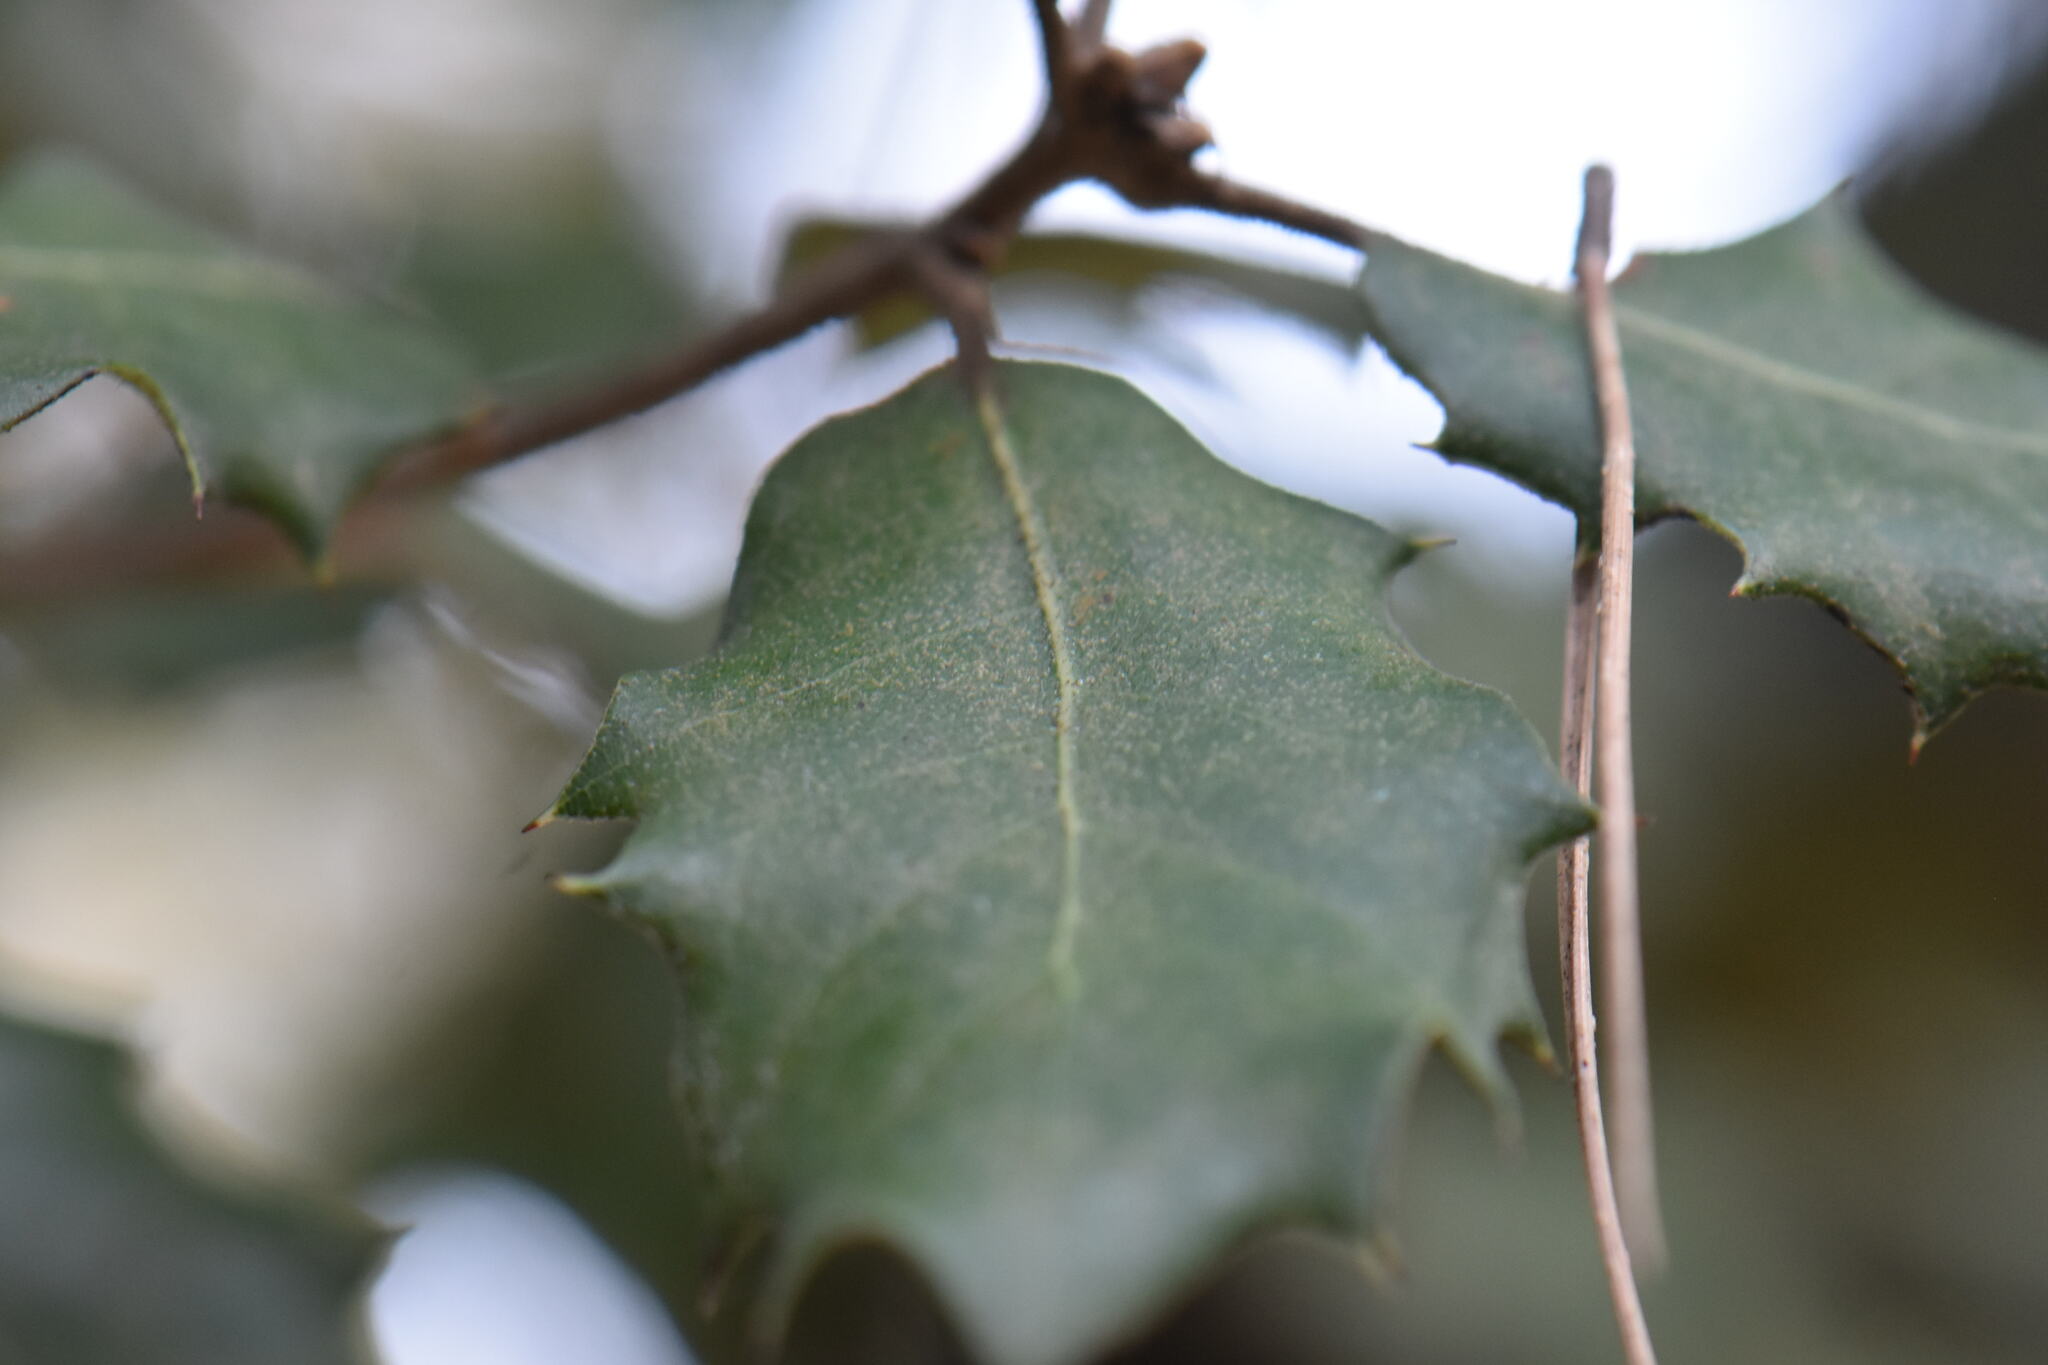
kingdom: Plantae
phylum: Tracheophyta
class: Magnoliopsida
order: Fagales
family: Fagaceae
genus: Quercus
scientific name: Quercus ilex
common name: Evergreen oak
